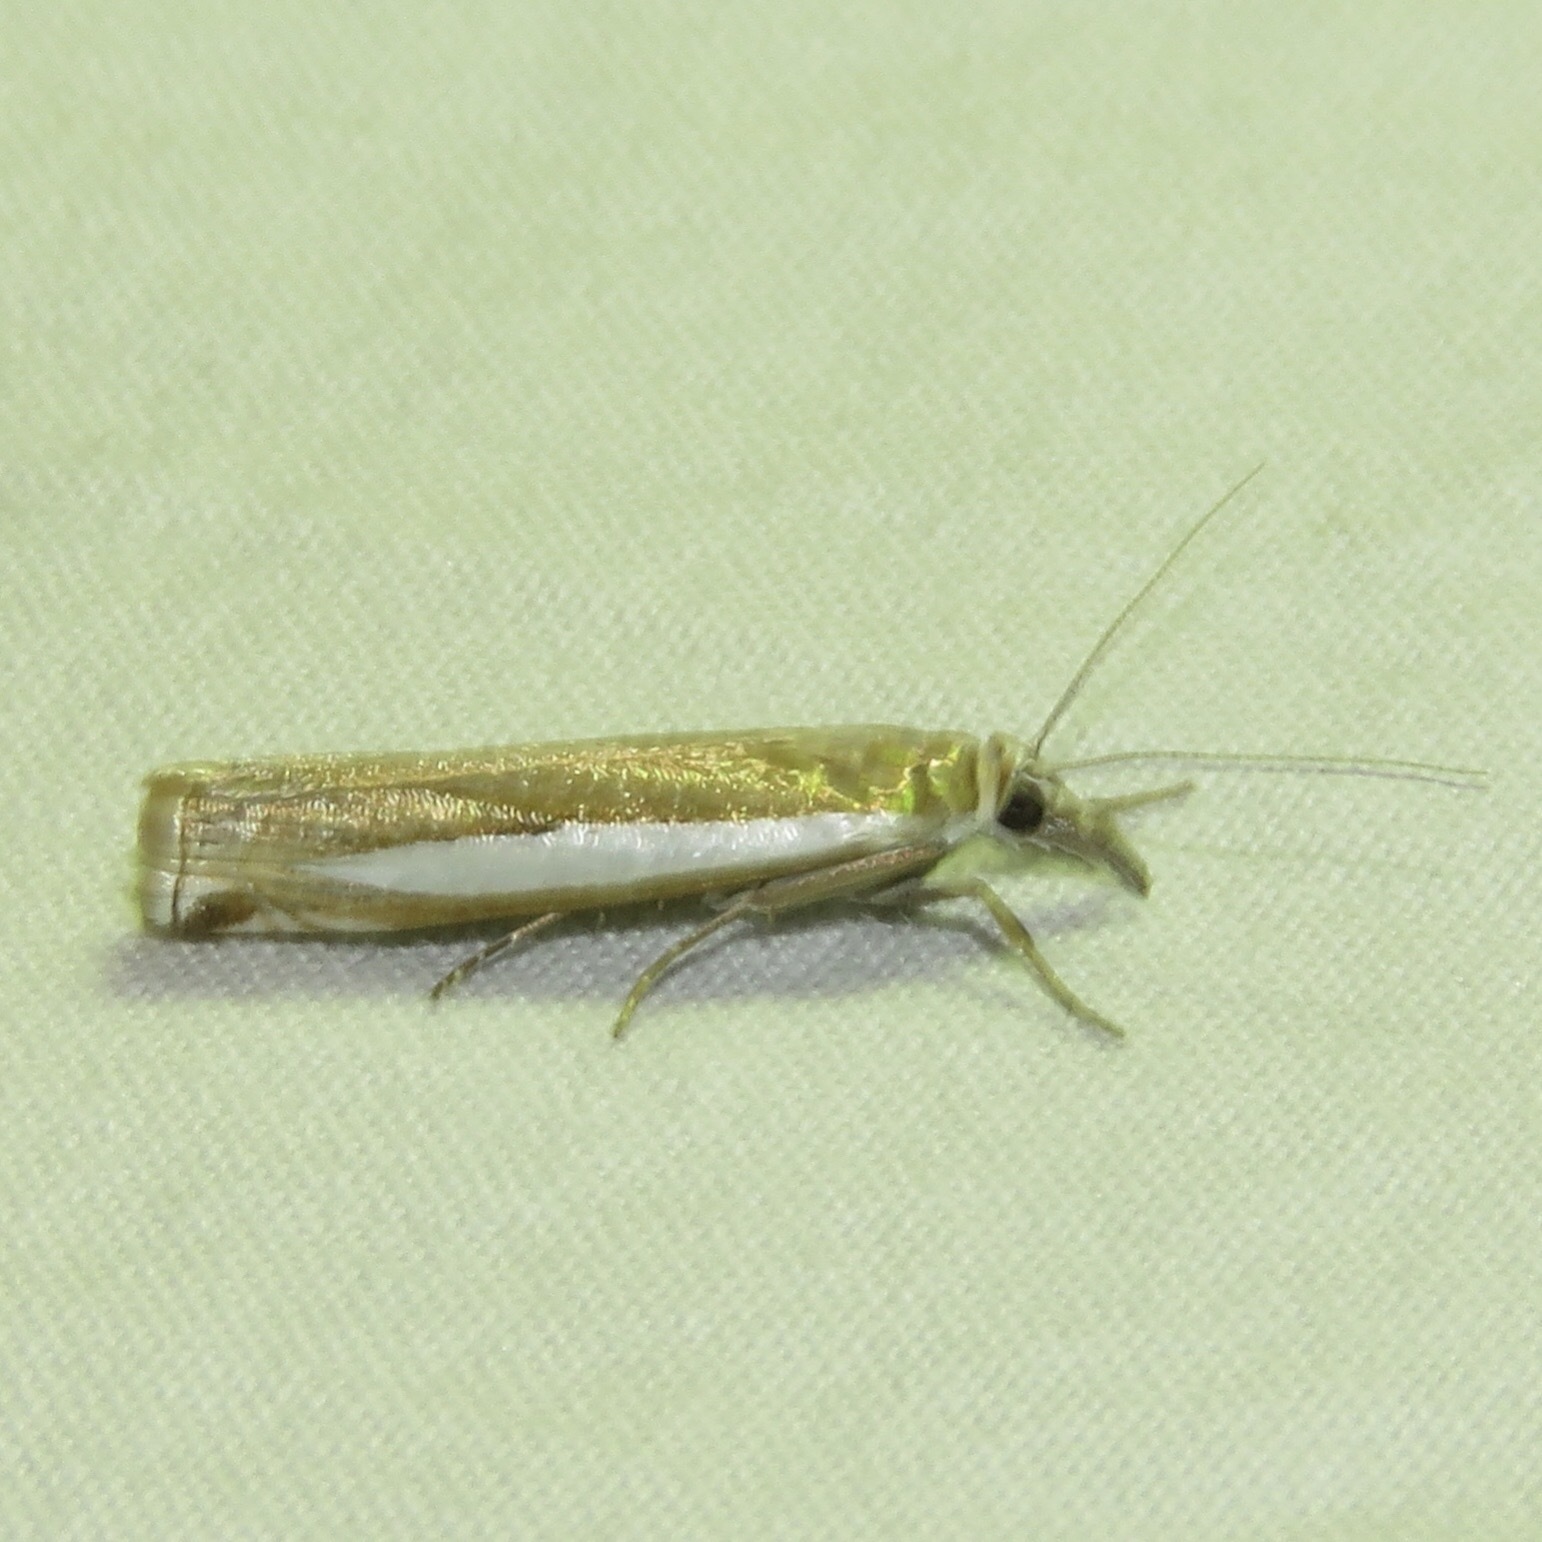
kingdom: Animalia
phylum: Arthropoda
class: Insecta
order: Lepidoptera
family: Crambidae
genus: Crambus
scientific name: Crambus praefectellus
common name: Common grass-veneer
